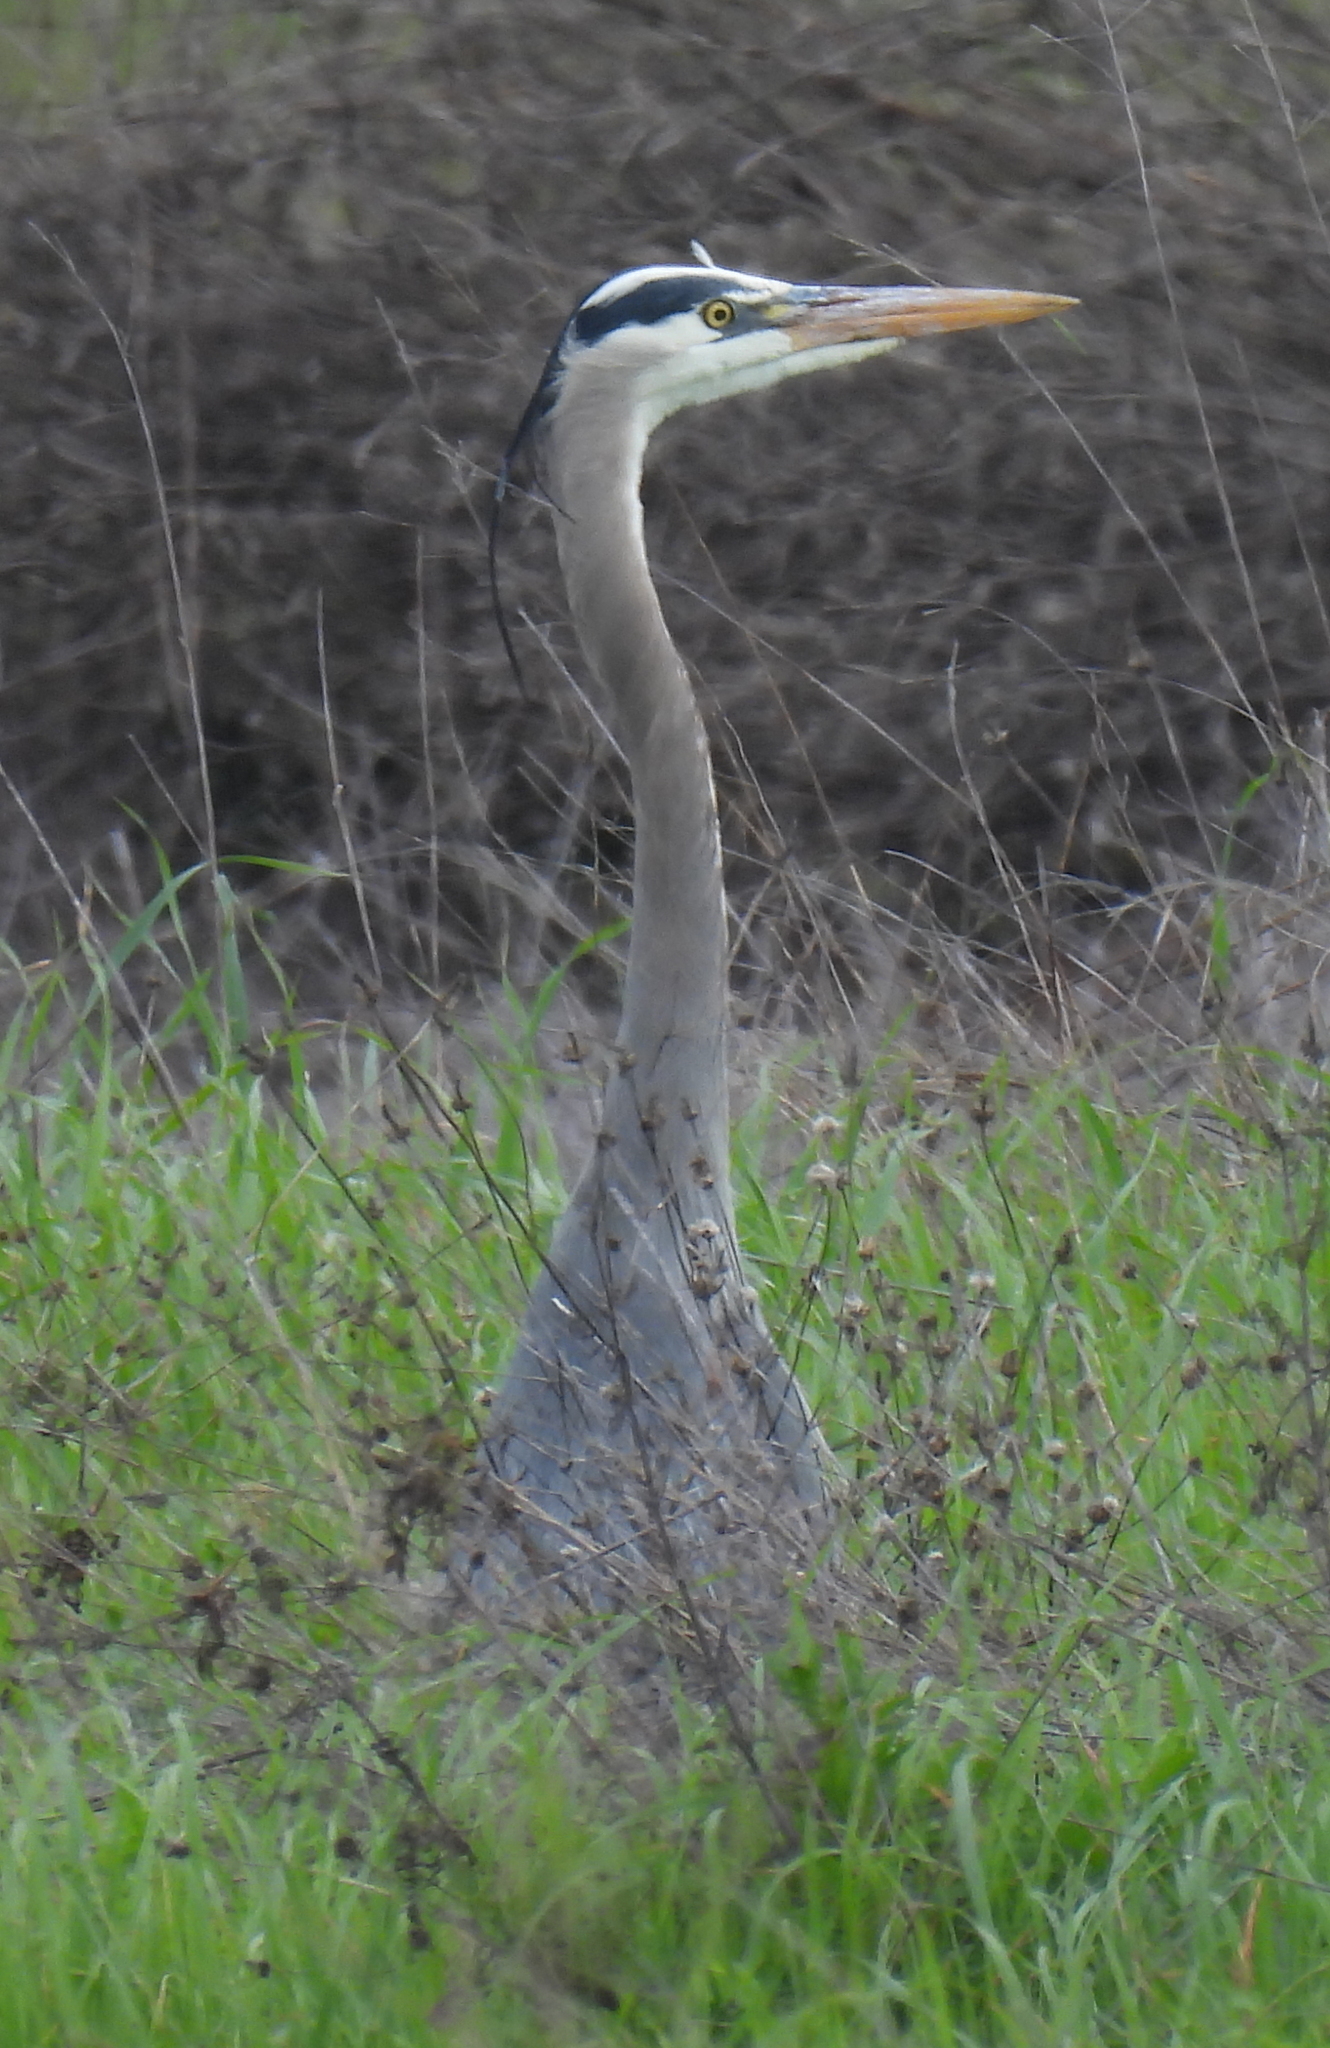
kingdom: Animalia
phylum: Chordata
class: Aves
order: Pelecaniformes
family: Ardeidae
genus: Ardea
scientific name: Ardea herodias
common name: Great blue heron
